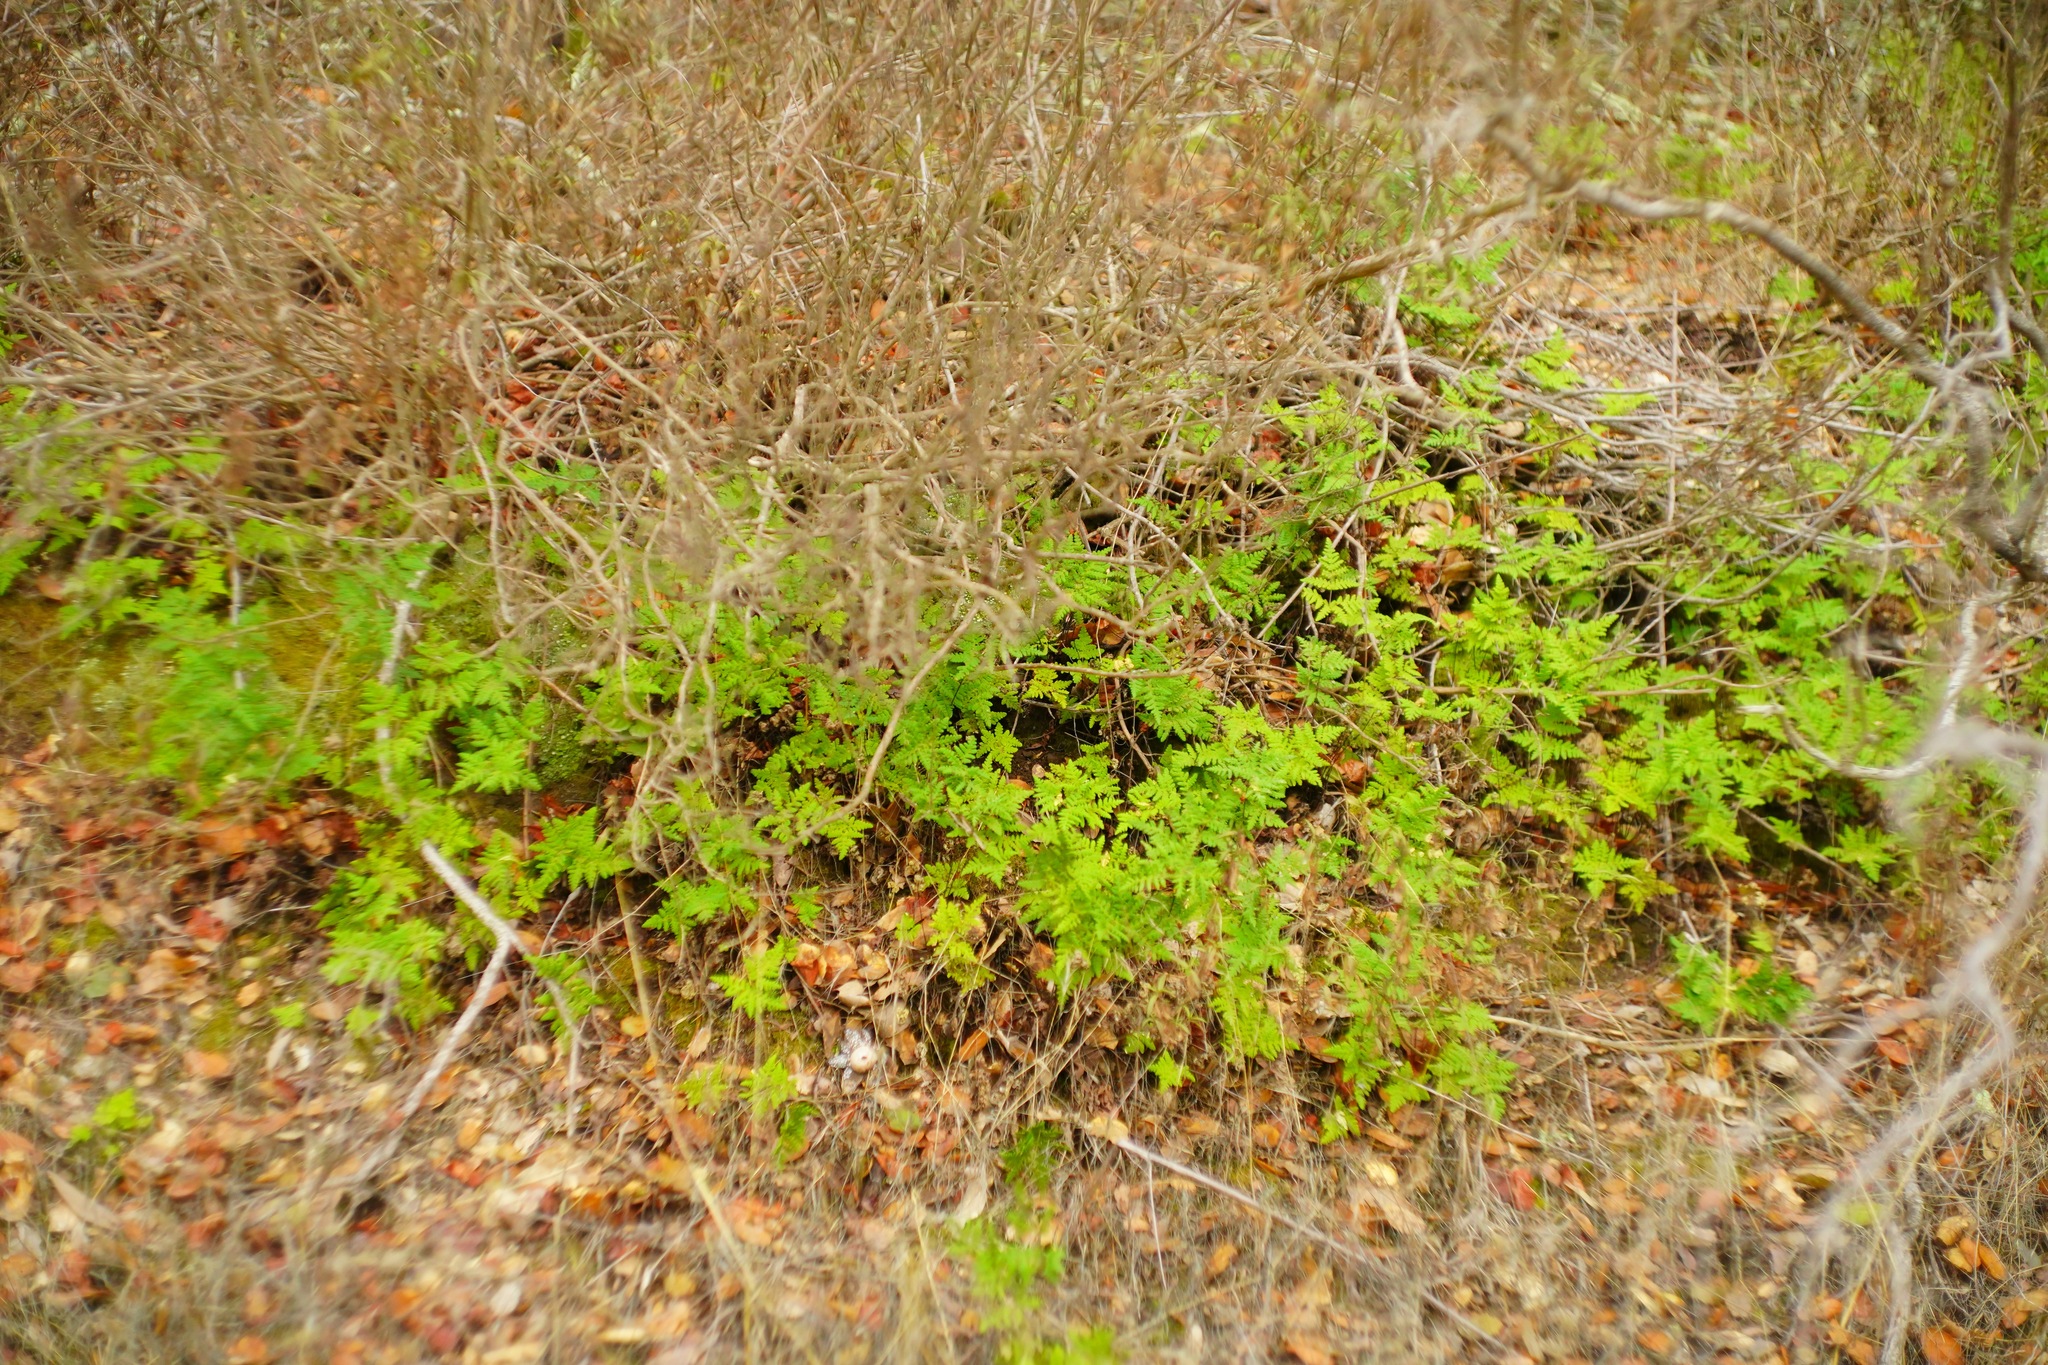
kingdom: Plantae
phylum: Tracheophyta
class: Polypodiopsida
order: Polypodiales
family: Pteridaceae
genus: Pentagramma
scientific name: Pentagramma triangularis
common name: Gold fern
